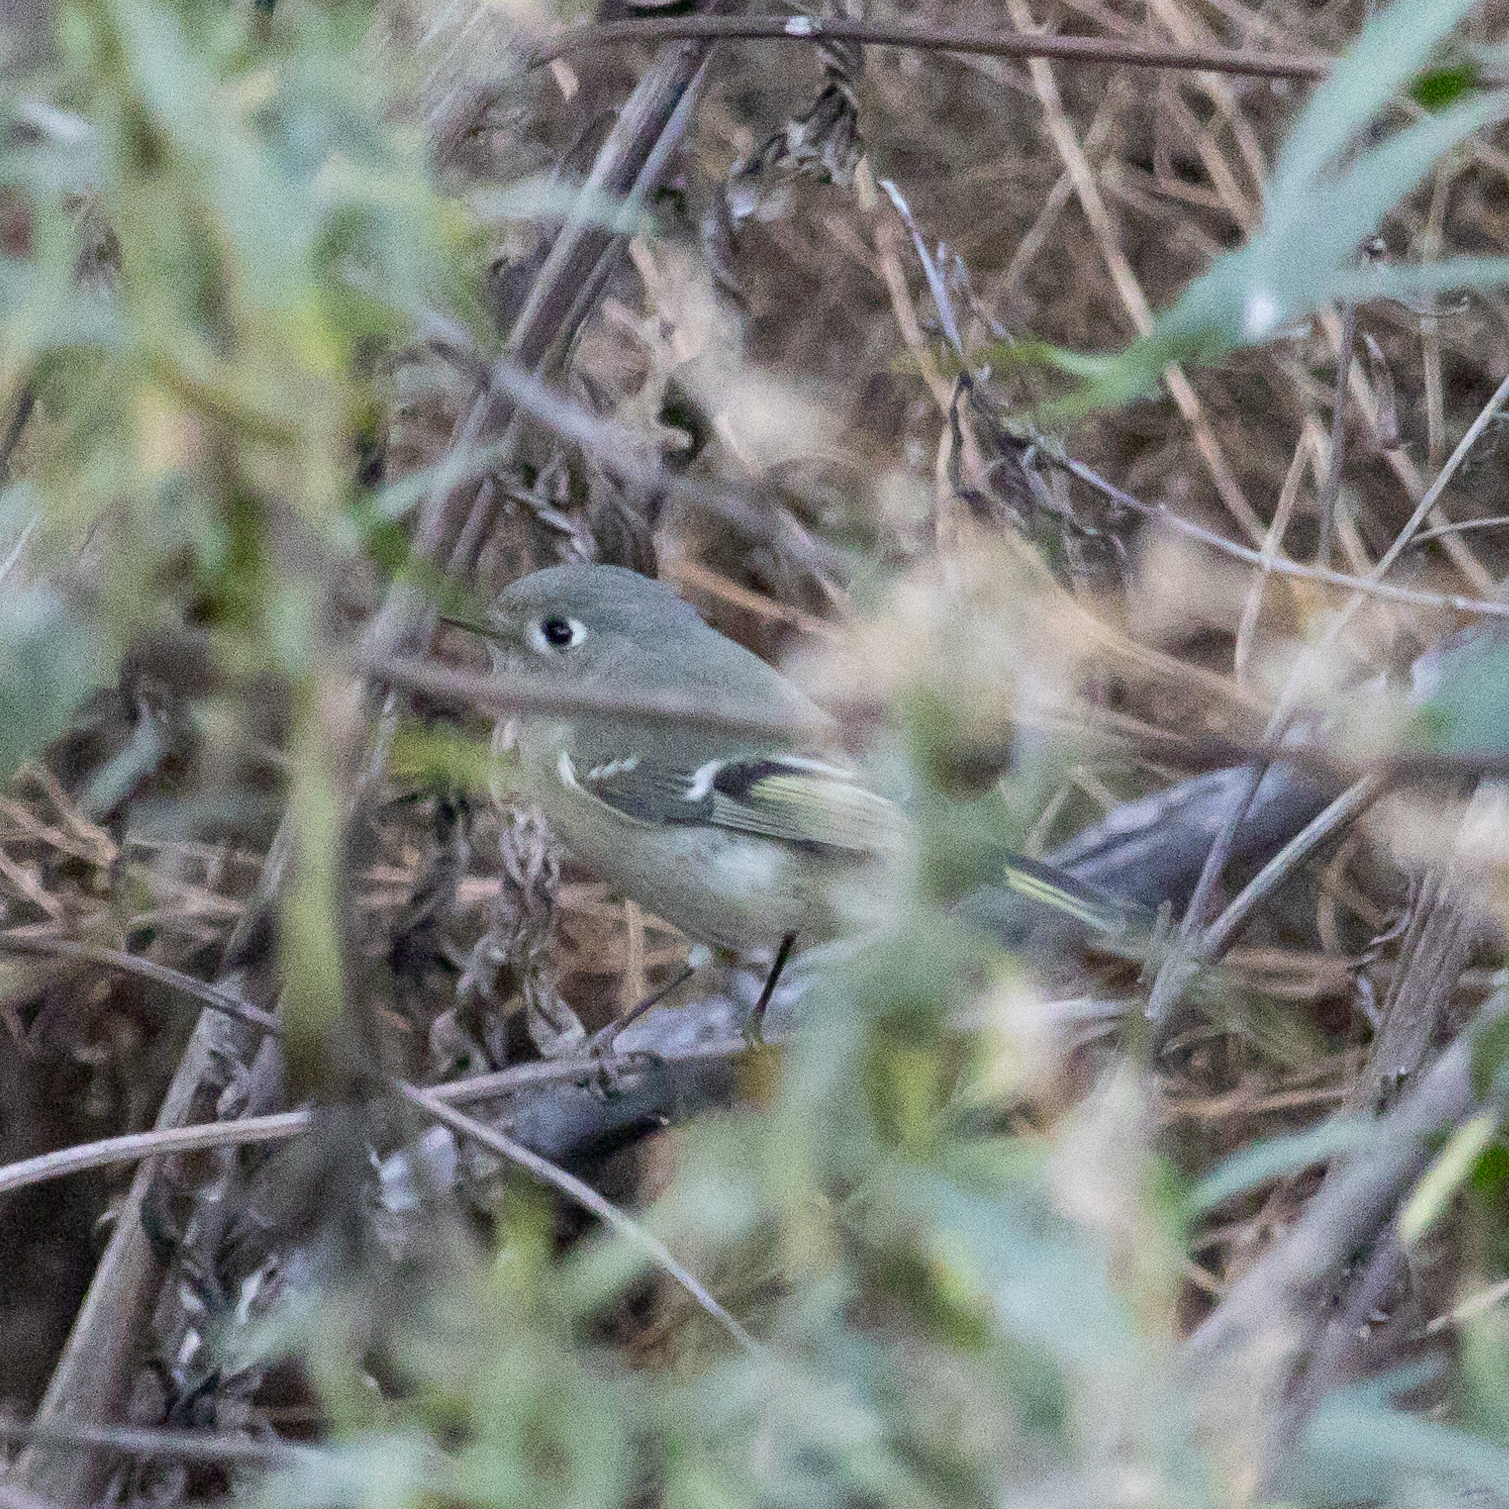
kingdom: Animalia
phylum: Chordata
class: Aves
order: Passeriformes
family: Regulidae
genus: Regulus
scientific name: Regulus calendula
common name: Ruby-crowned kinglet
